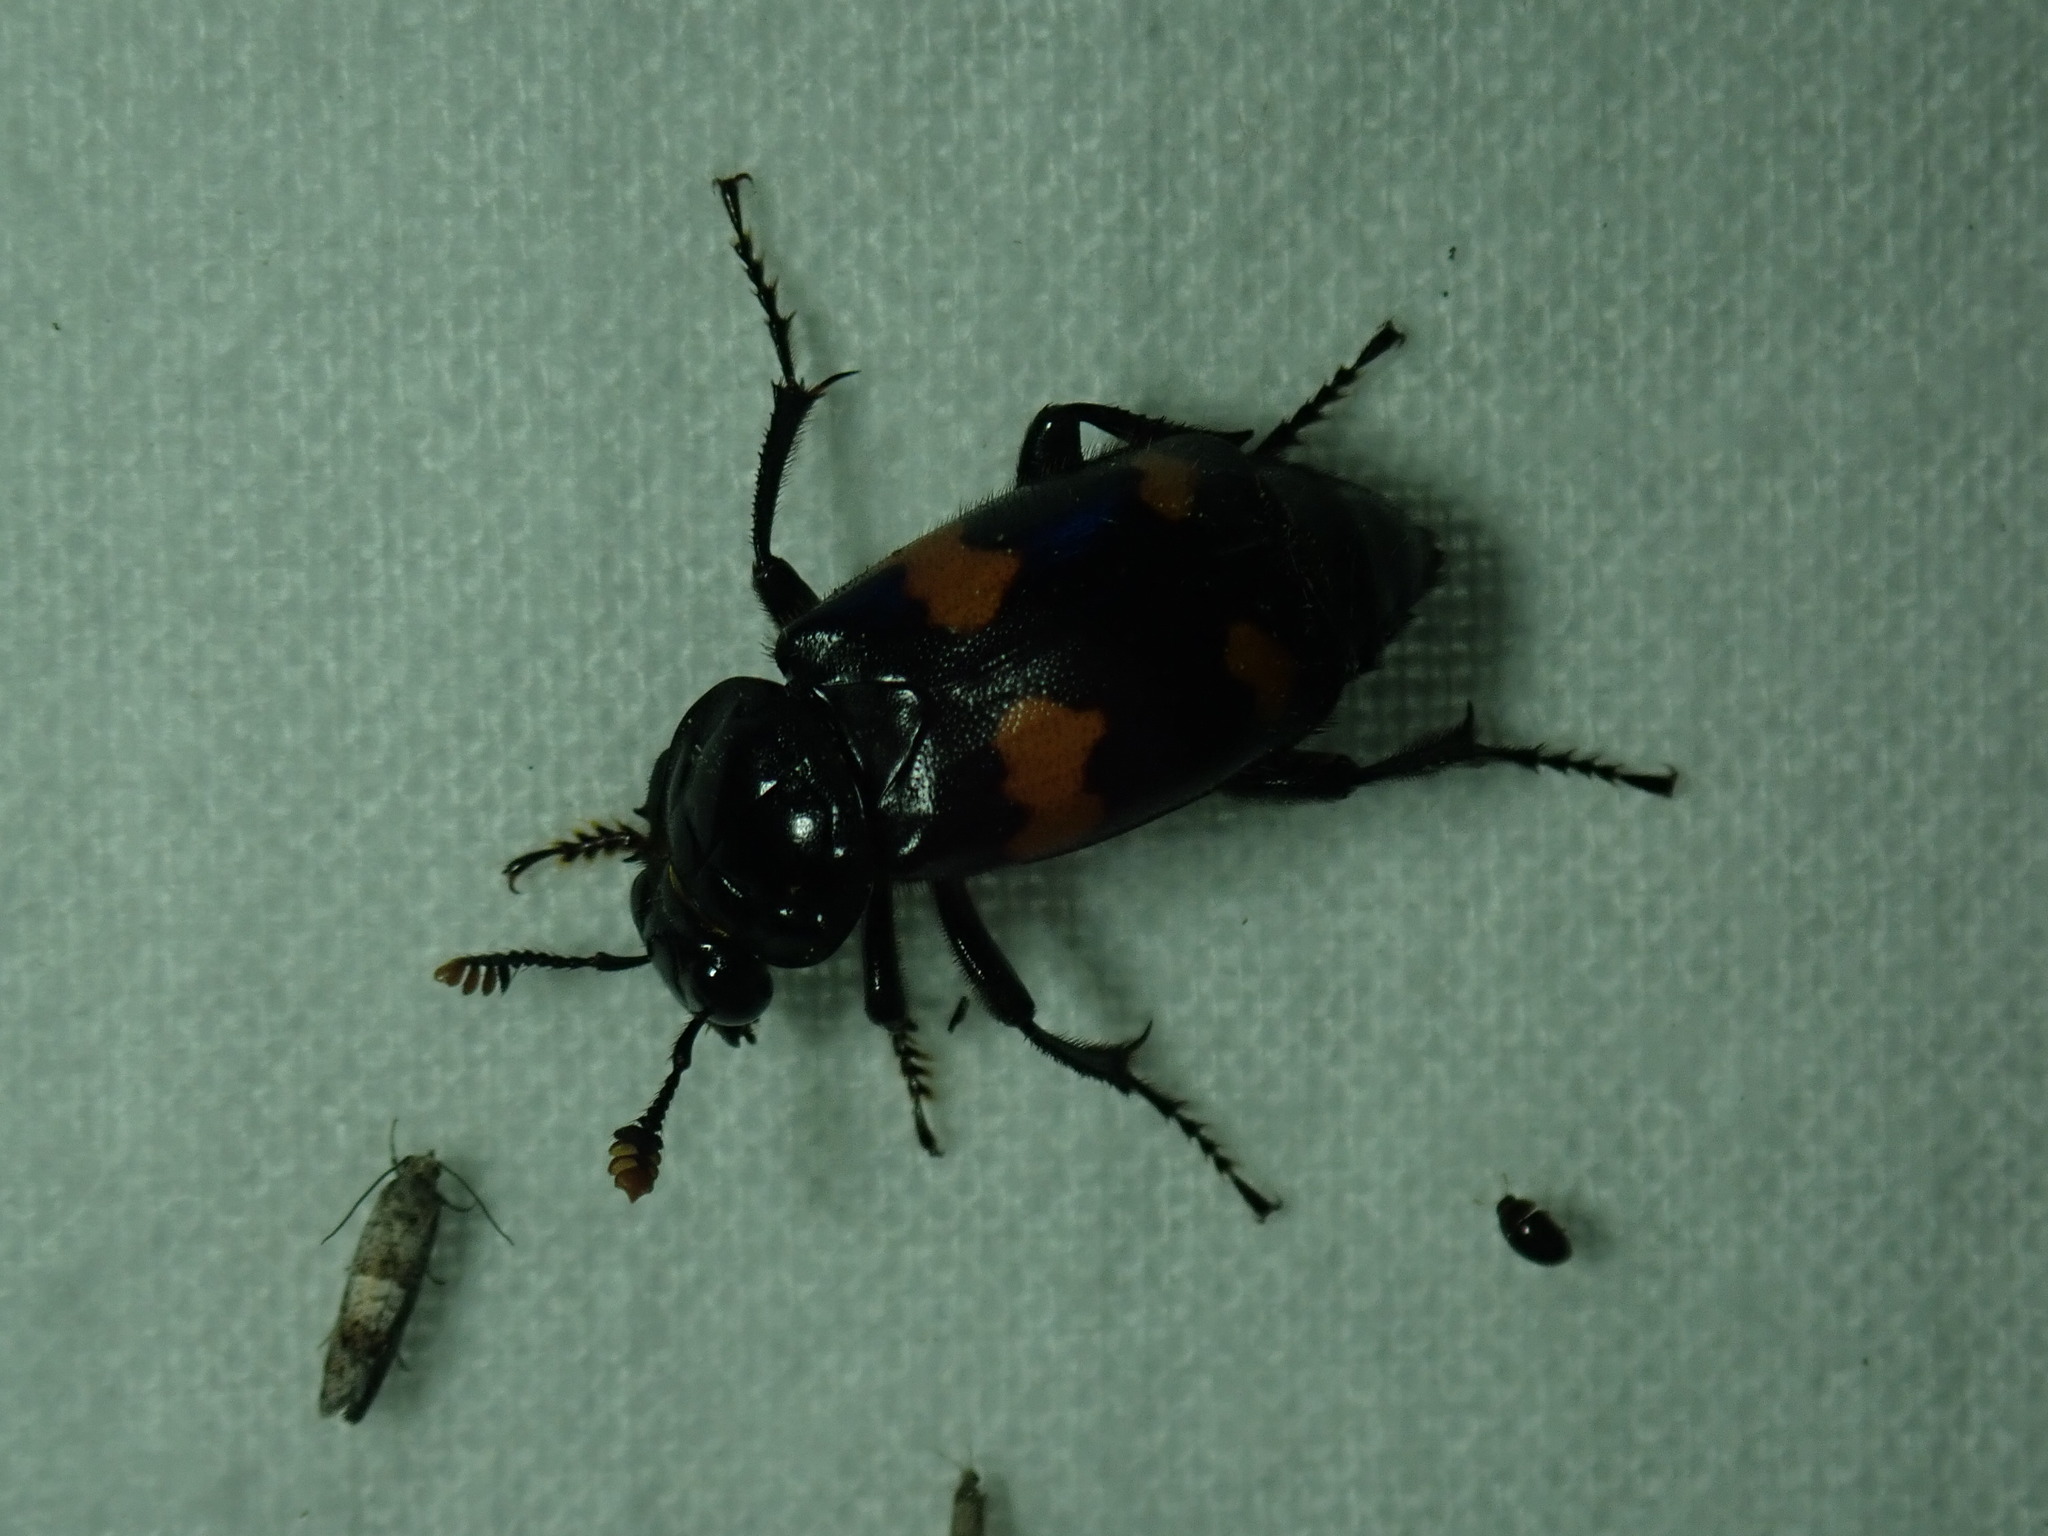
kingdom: Animalia
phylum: Arthropoda
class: Insecta
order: Coleoptera
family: Staphylinidae
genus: Nicrophorus
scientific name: Nicrophorus orbicollis
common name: Roundneck sexton beetle
